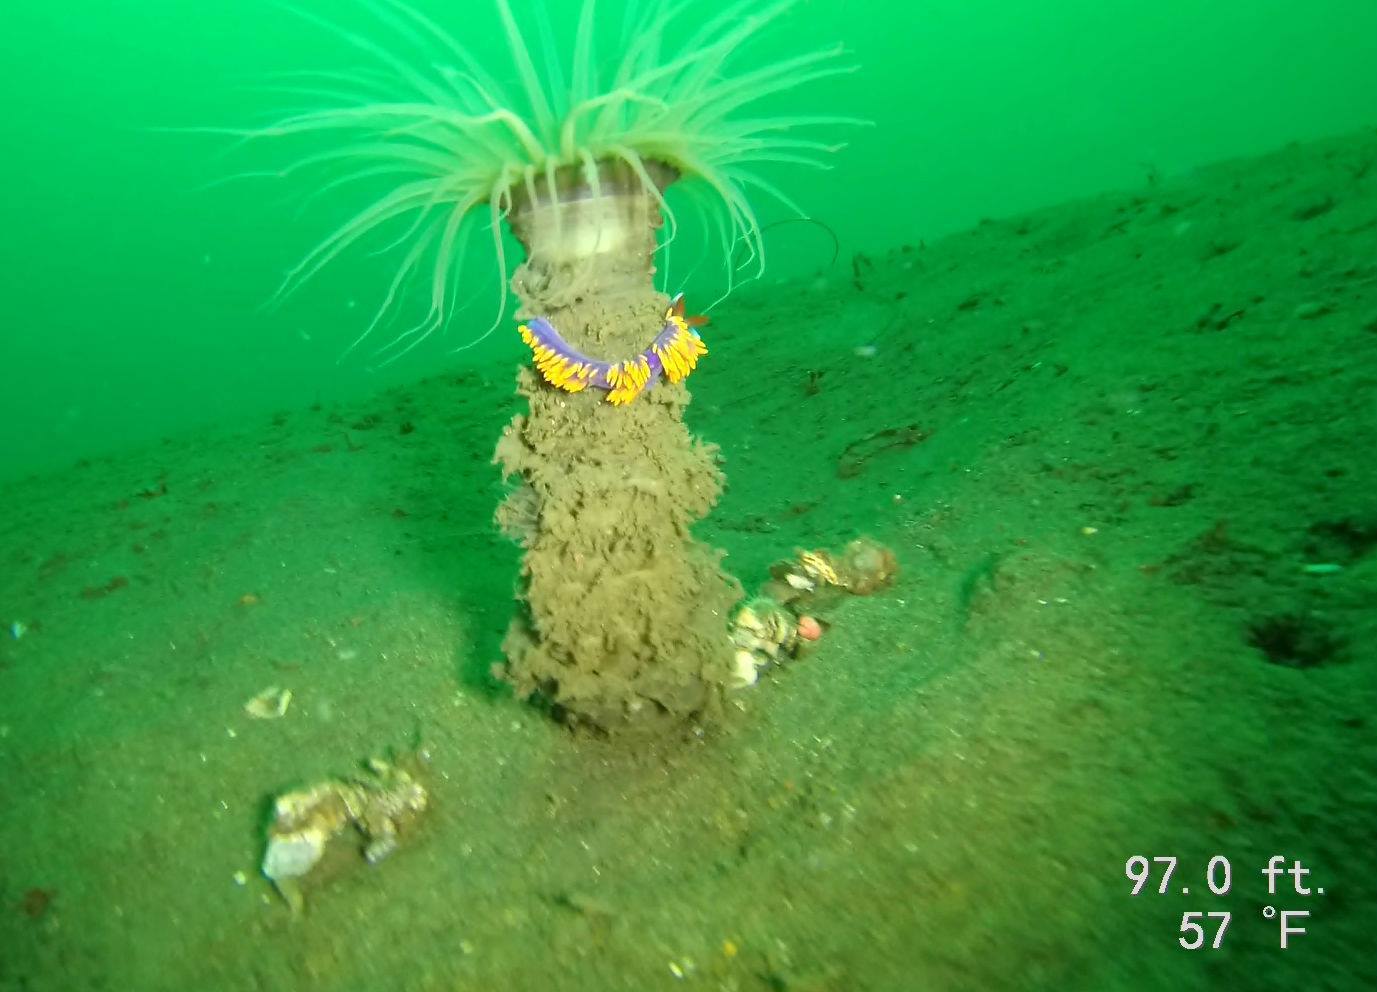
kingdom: Animalia
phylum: Mollusca
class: Gastropoda
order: Nudibranchia
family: Flabellinopsidae
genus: Flabellinopsis
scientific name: Flabellinopsis iodinea
